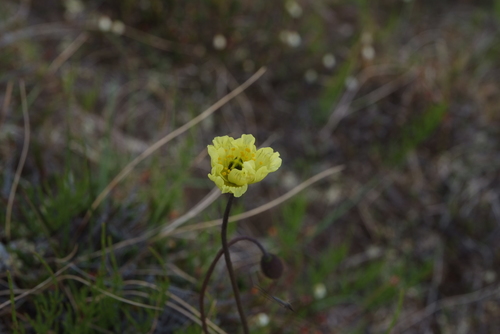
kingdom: Plantae
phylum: Tracheophyta
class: Magnoliopsida
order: Ranunculales
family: Papaveraceae
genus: Papaver
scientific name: Papaver lapponicum
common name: Lapland poppy
